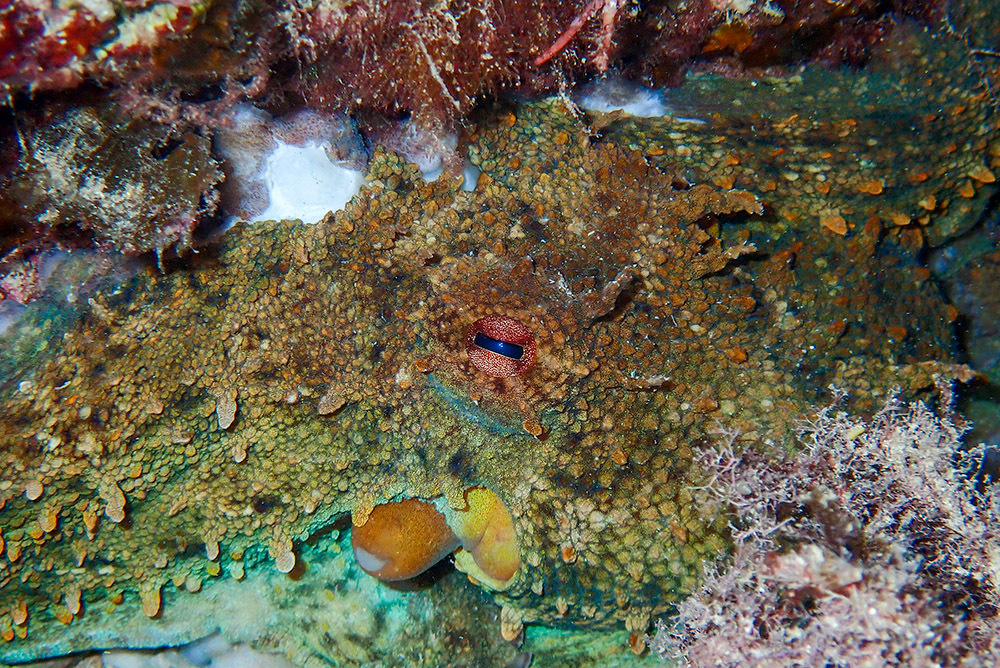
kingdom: Animalia
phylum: Mollusca
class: Cephalopoda
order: Octopoda
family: Octopodidae
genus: Octopus
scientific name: Octopus vulgaris
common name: Common octopus
